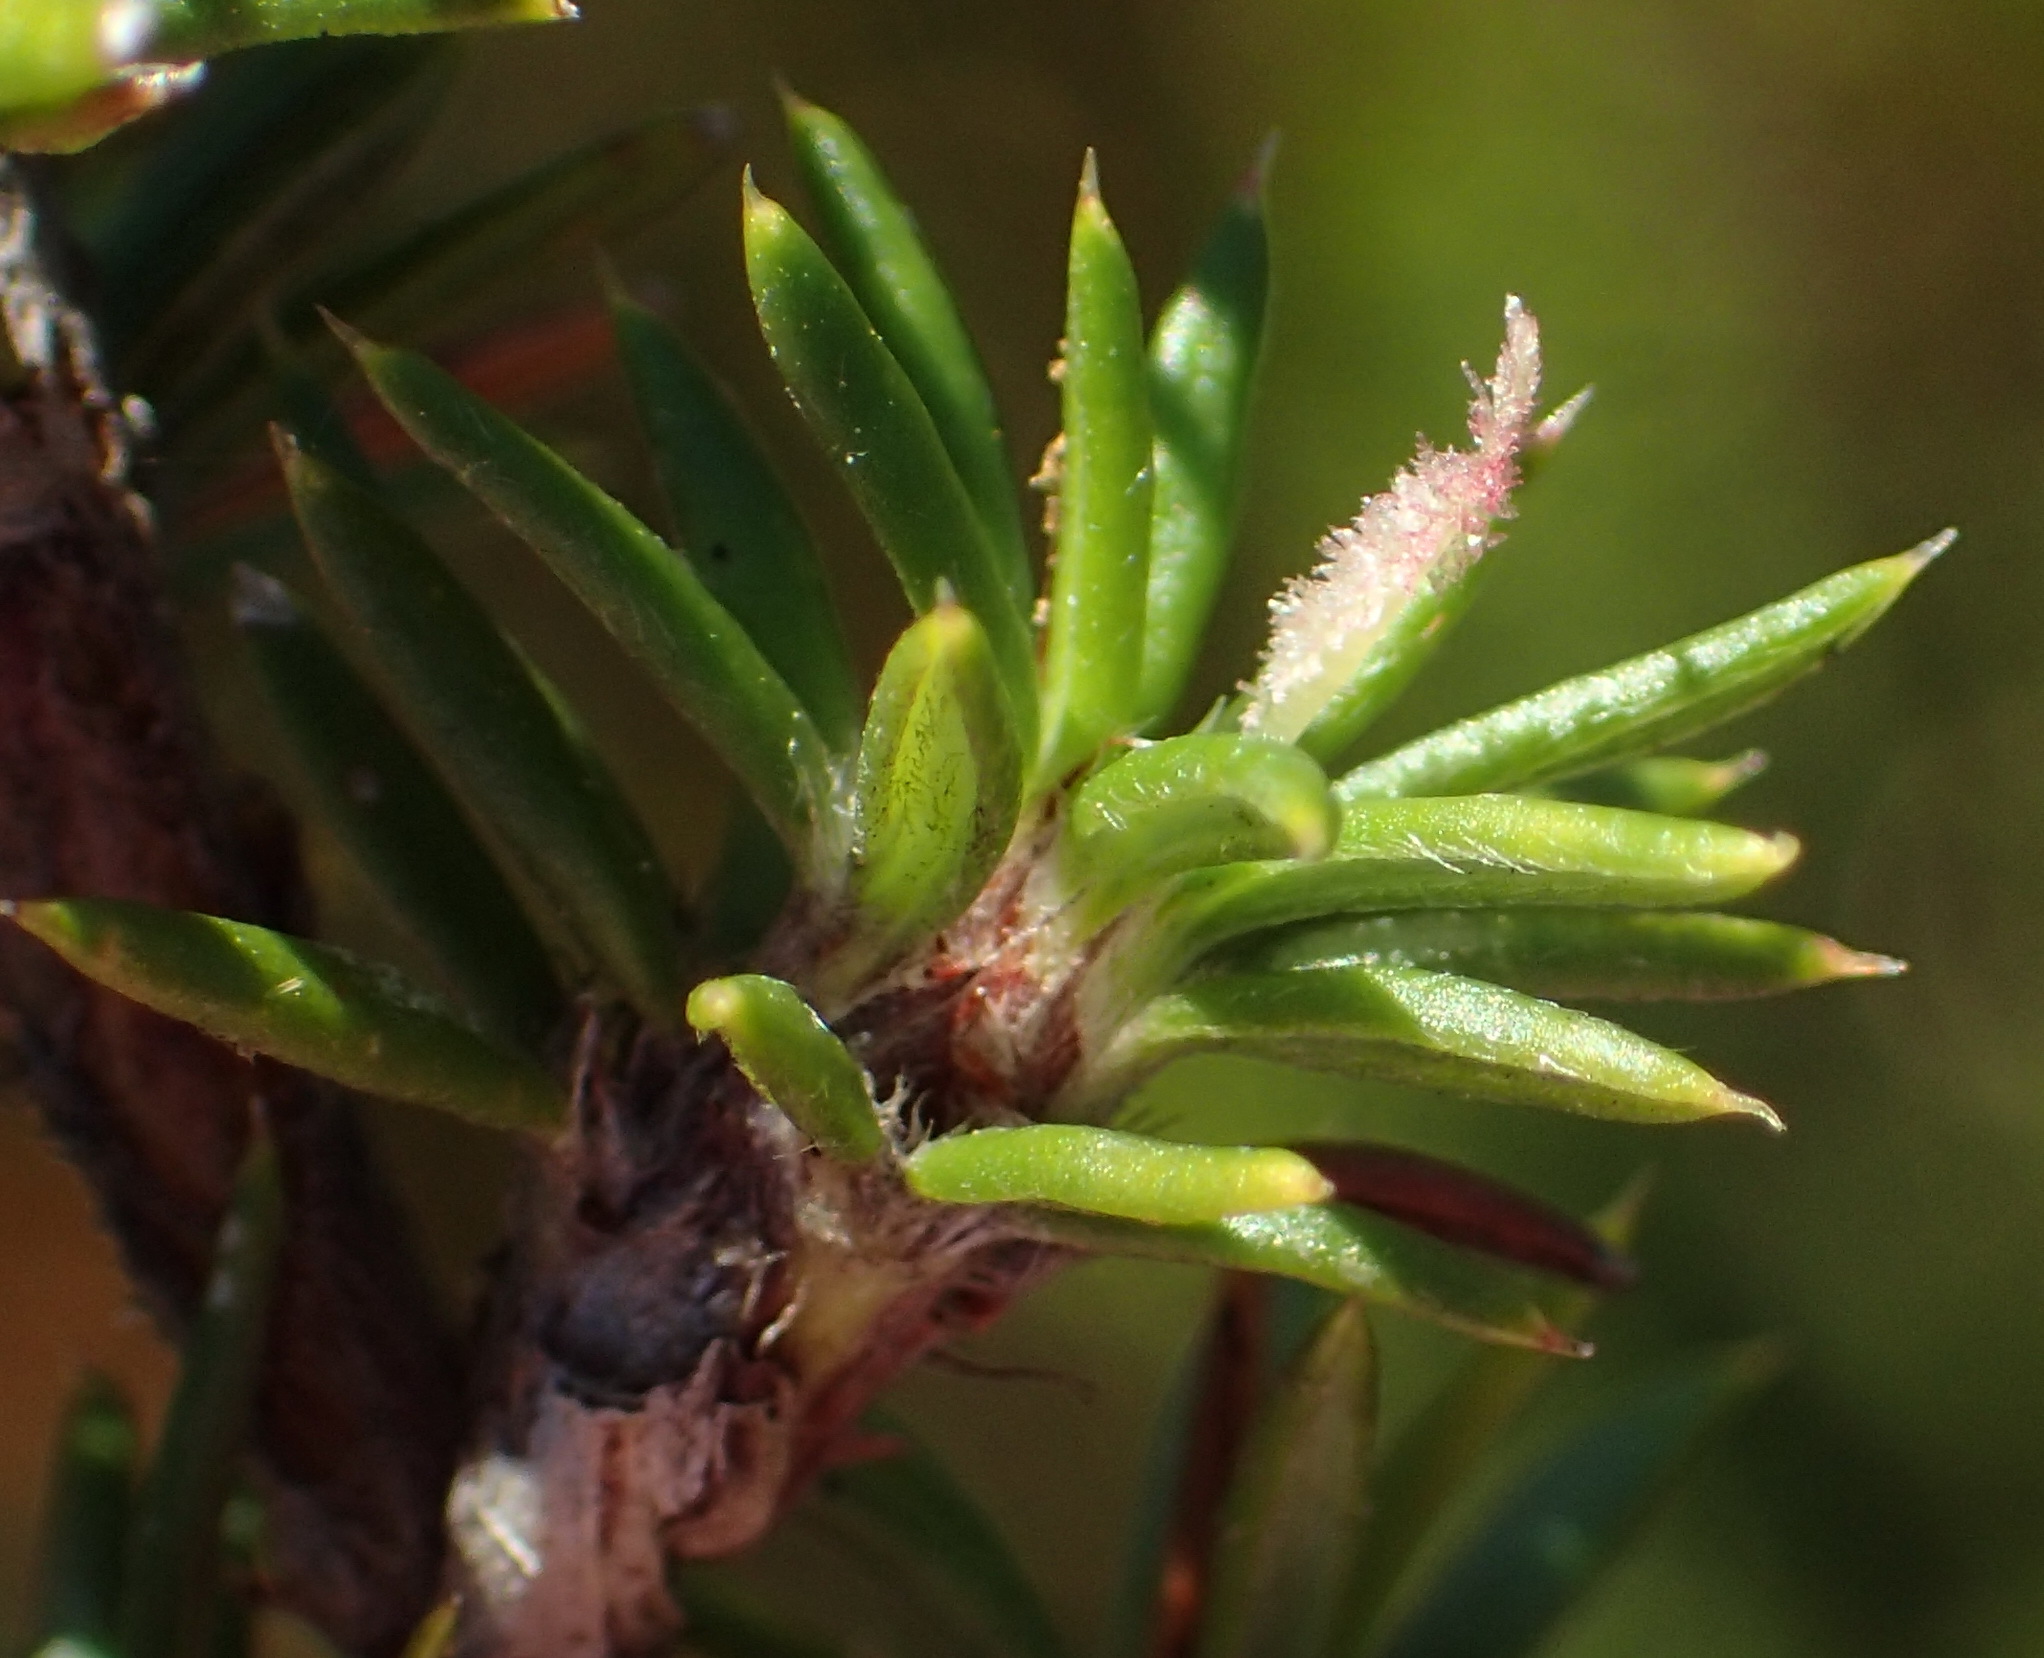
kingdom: Plantae
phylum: Tracheophyta
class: Magnoliopsida
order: Rosales
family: Rosaceae
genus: Cliffortia
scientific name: Cliffortia stricta
